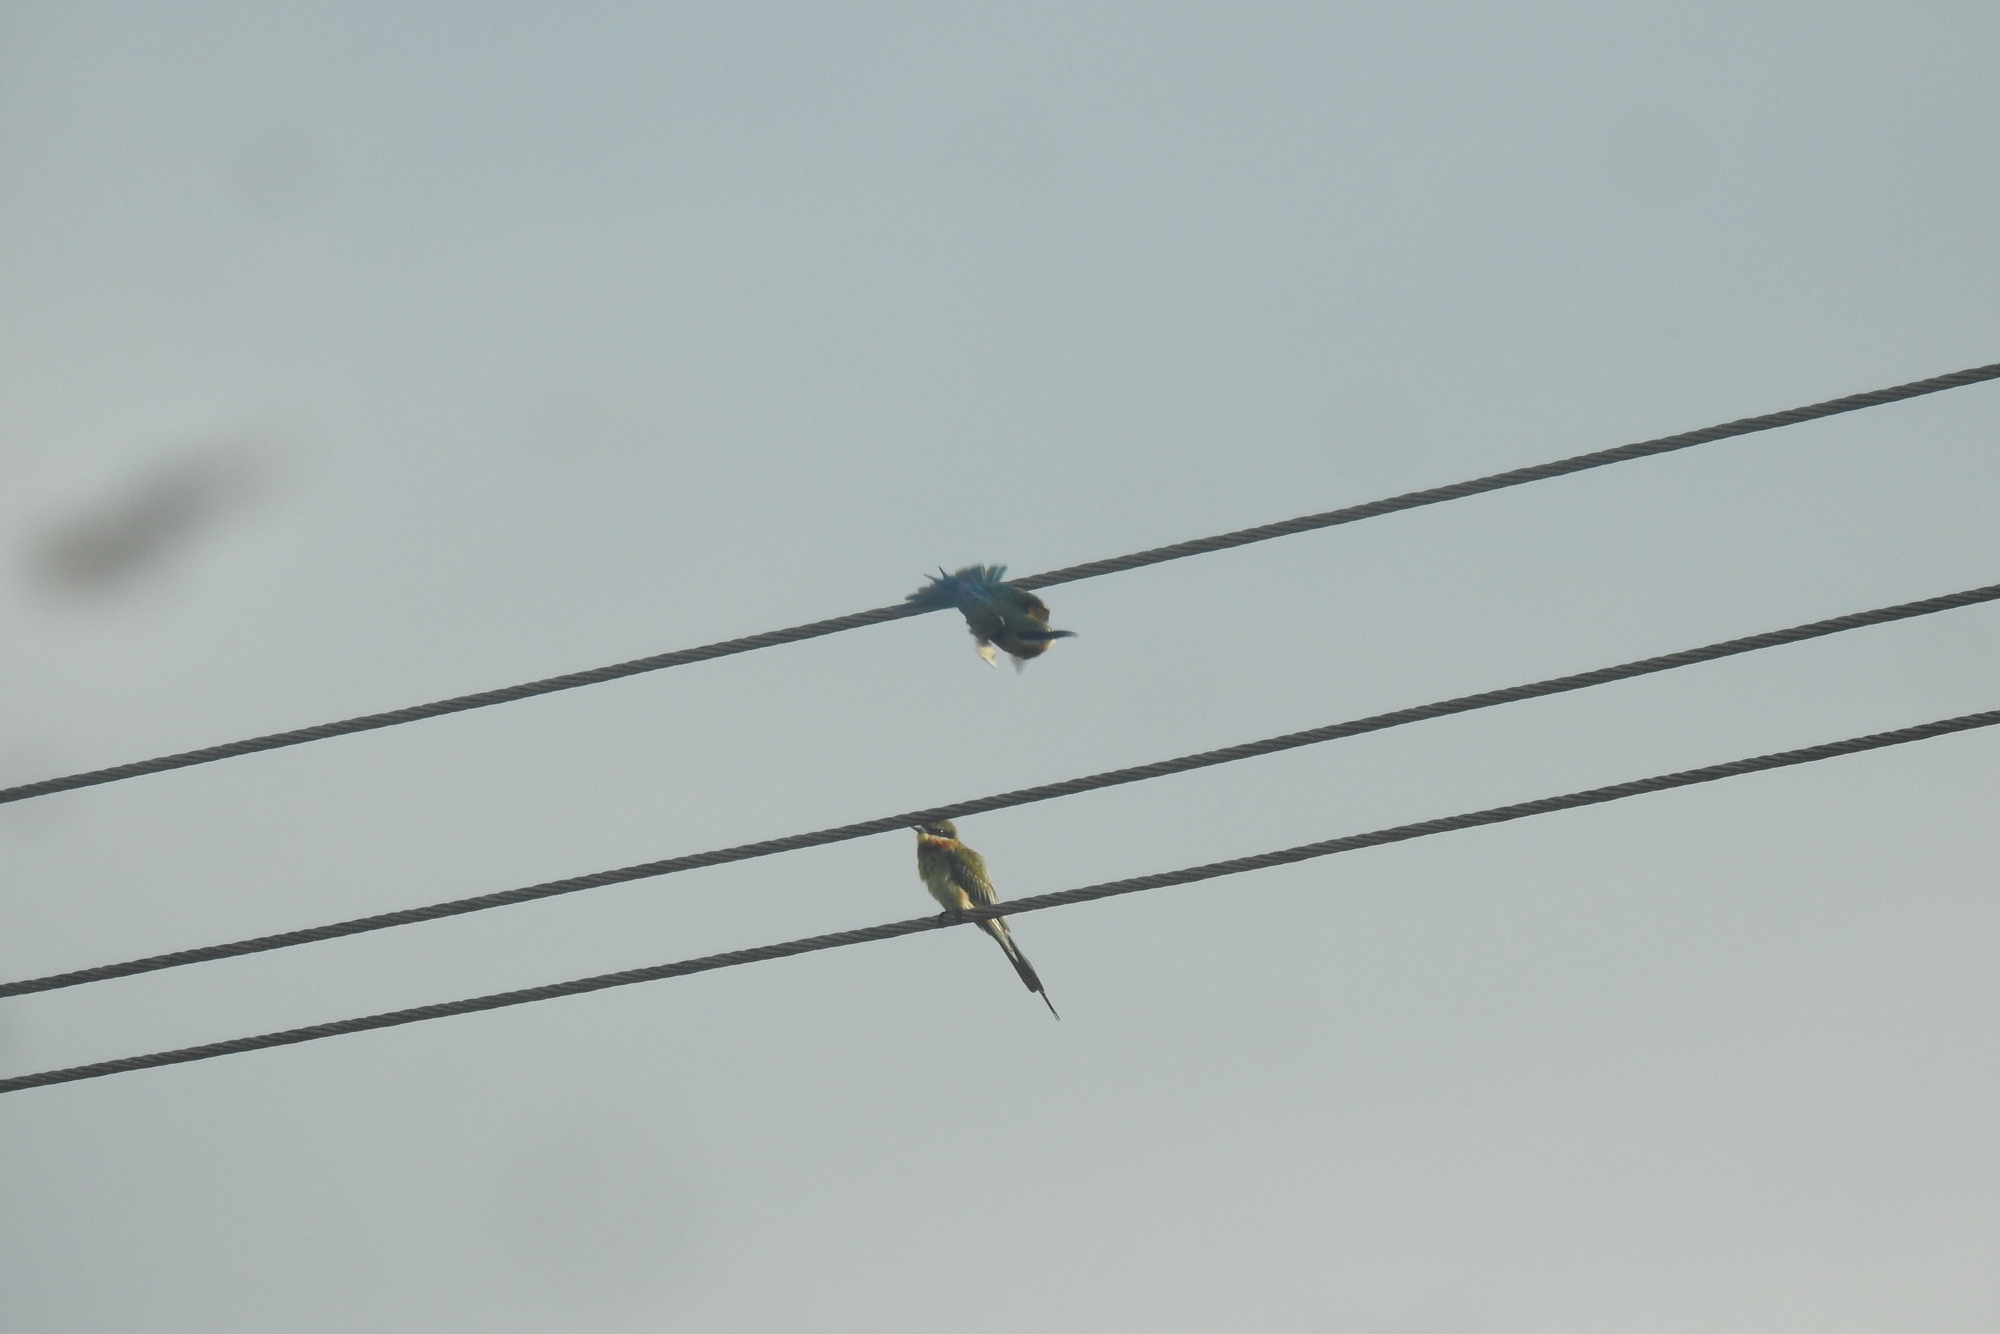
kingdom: Animalia
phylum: Chordata
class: Aves
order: Coraciiformes
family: Meropidae
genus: Merops
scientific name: Merops philippinus
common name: Blue-tailed bee-eater
